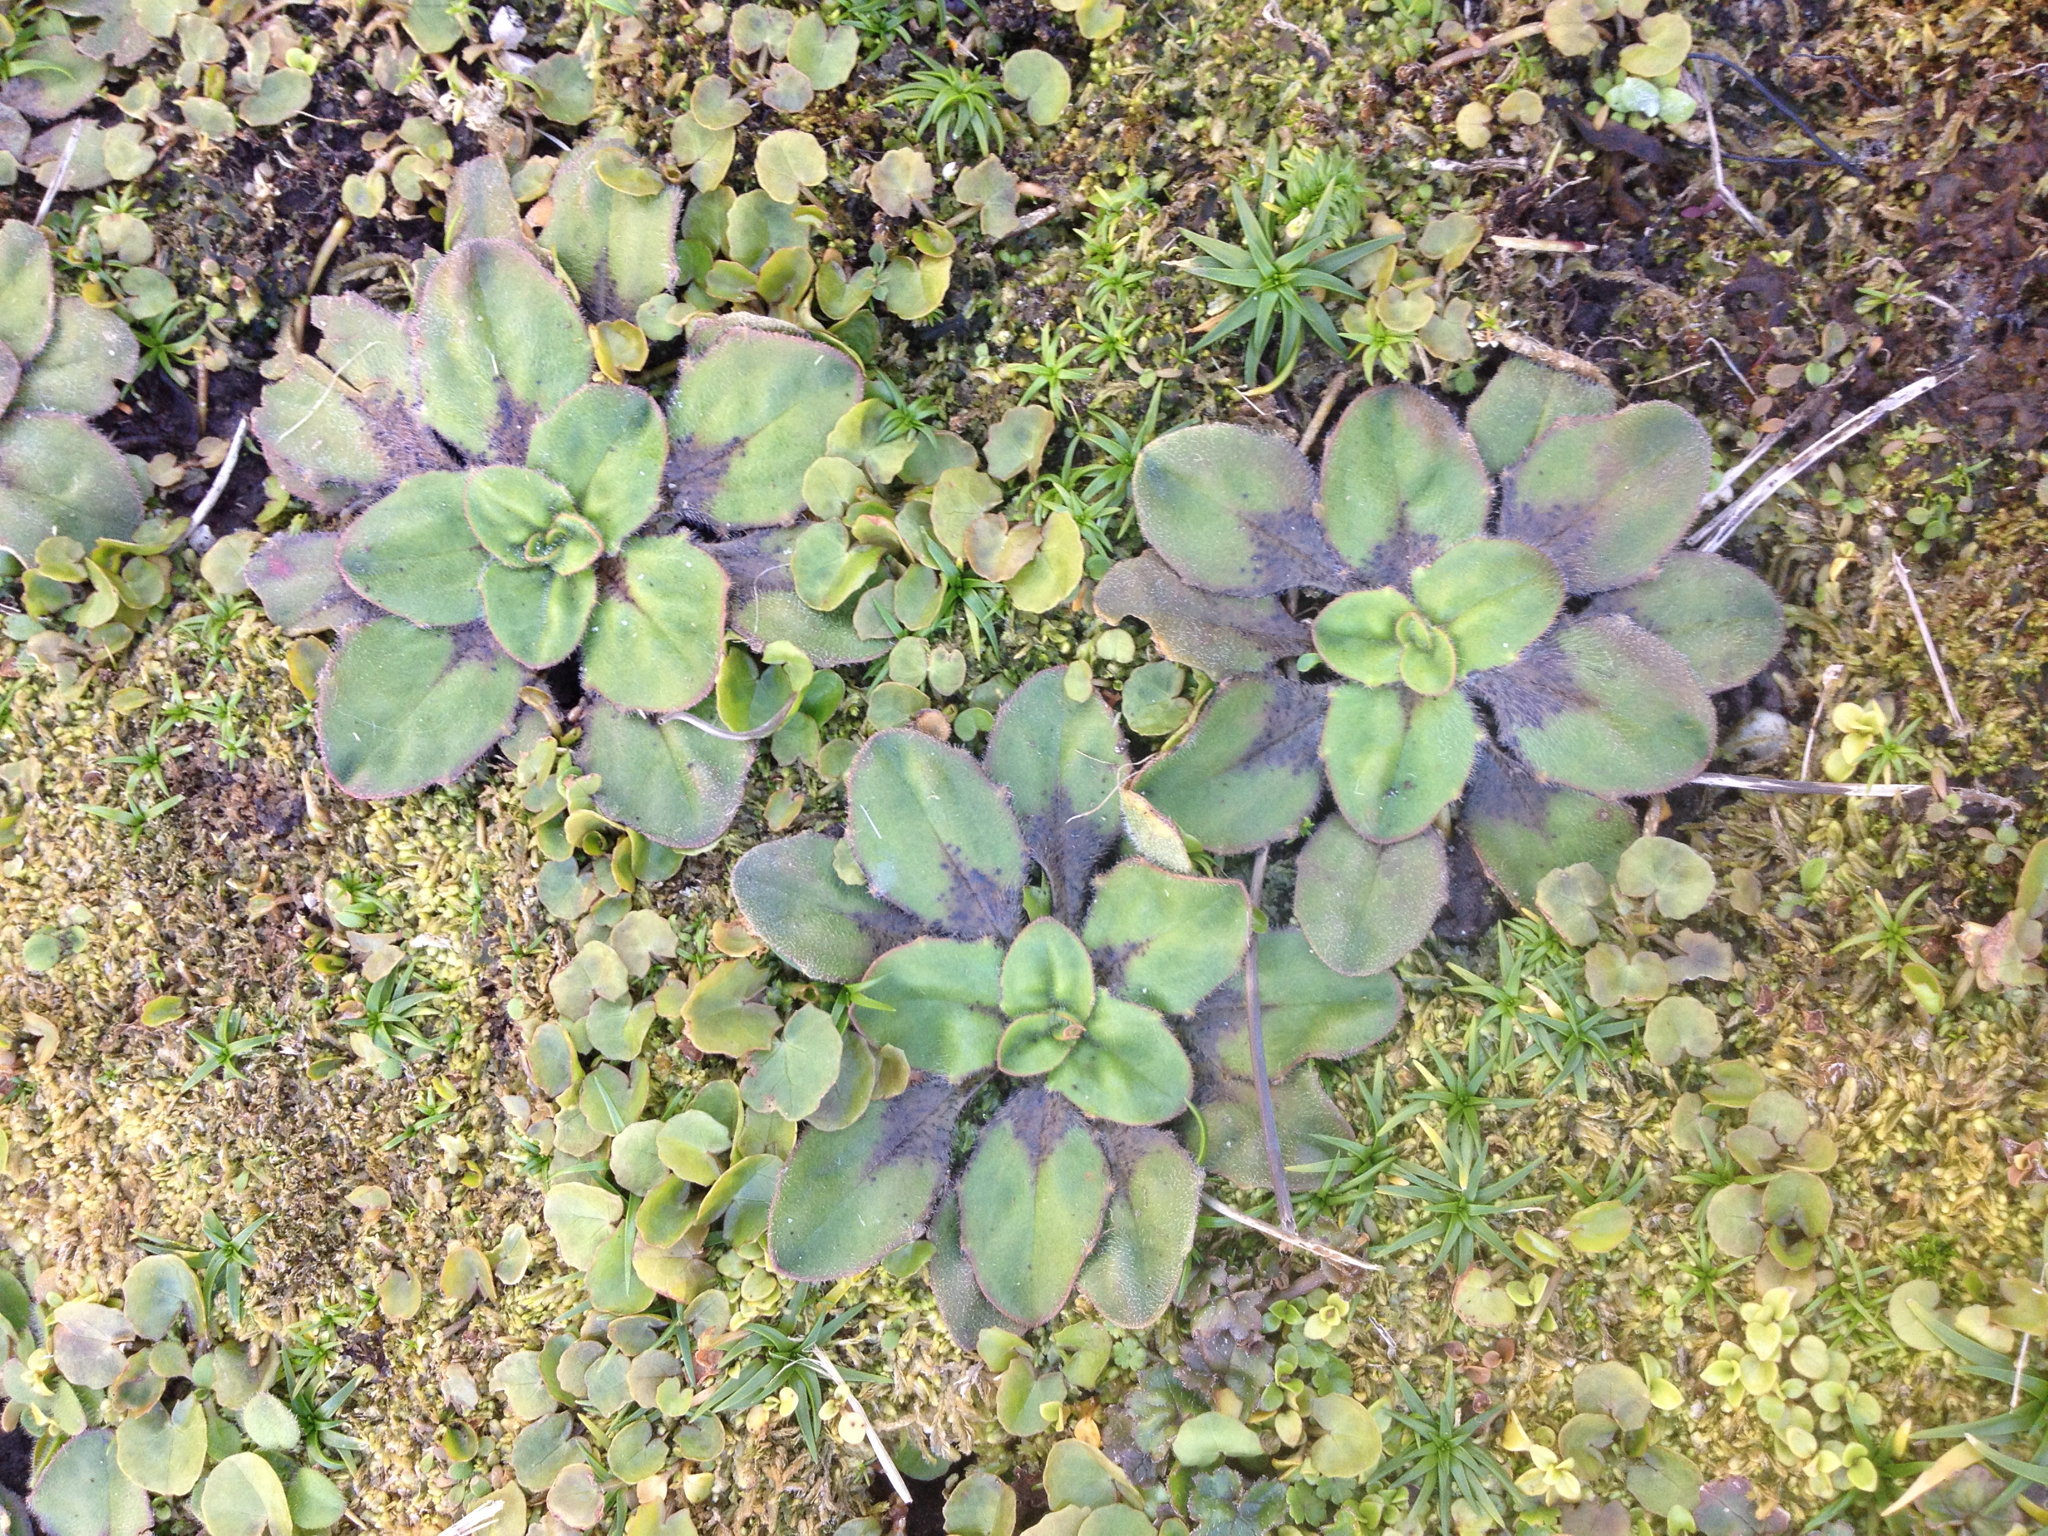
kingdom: Plantae
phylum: Tracheophyta
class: Magnoliopsida
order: Lamiales
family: Plantaginaceae
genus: Plantago
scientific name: Plantago raoulii
